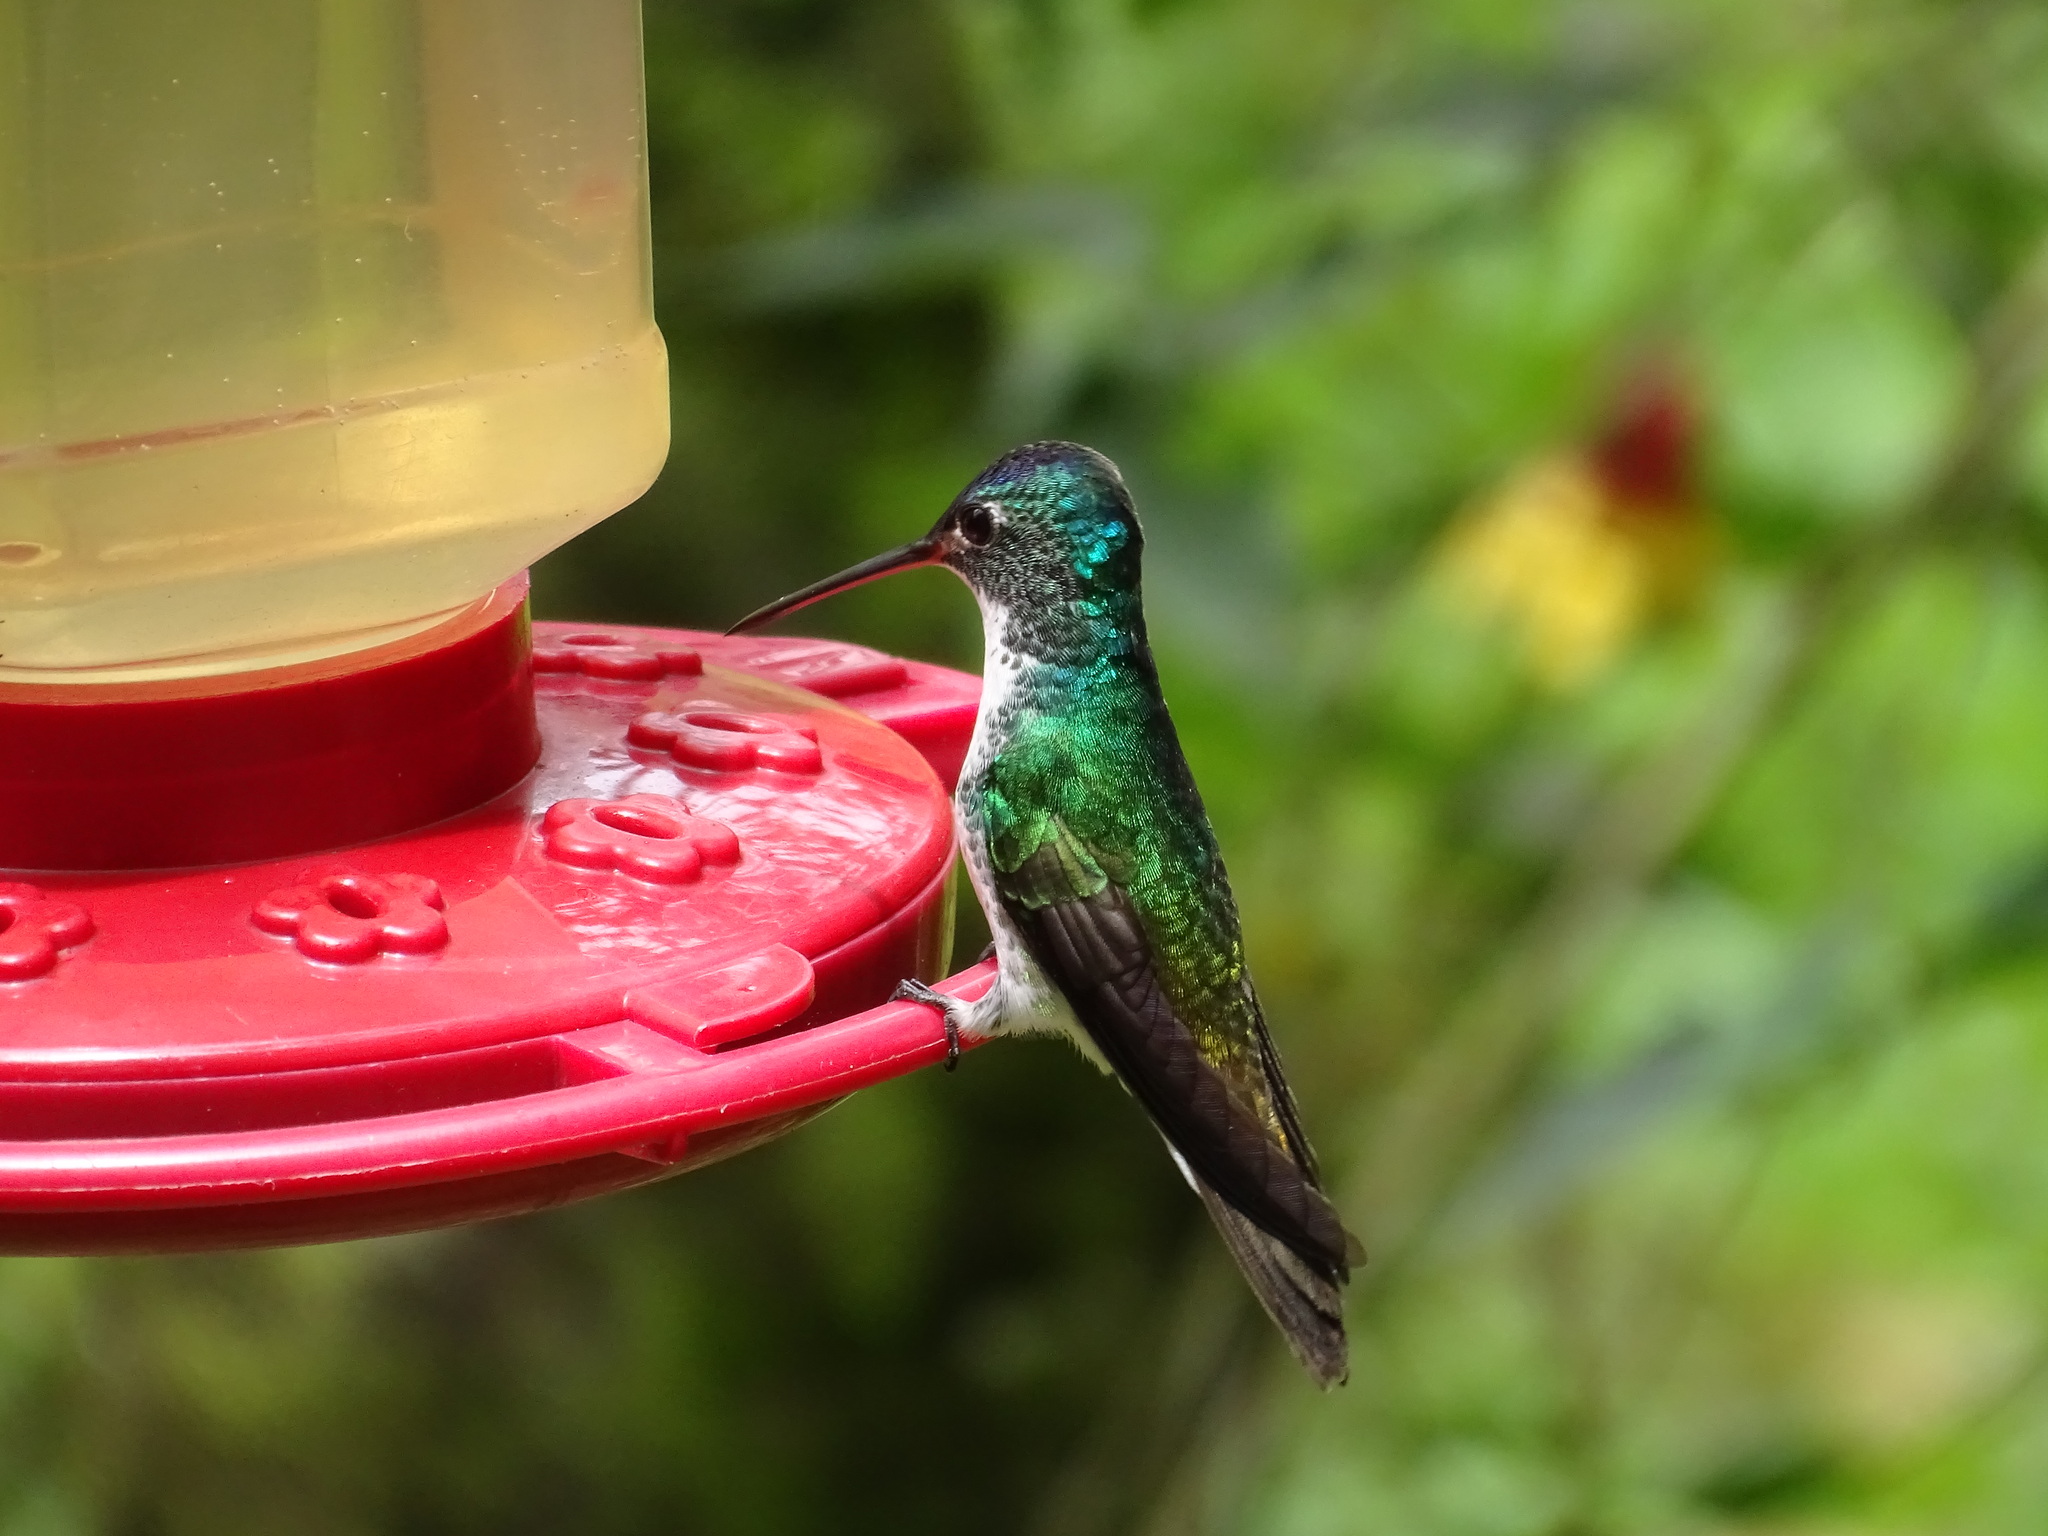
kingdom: Animalia
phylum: Chordata
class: Aves
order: Apodiformes
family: Trochilidae
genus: Uranomitra
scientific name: Uranomitra franciae
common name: Andean emerald
